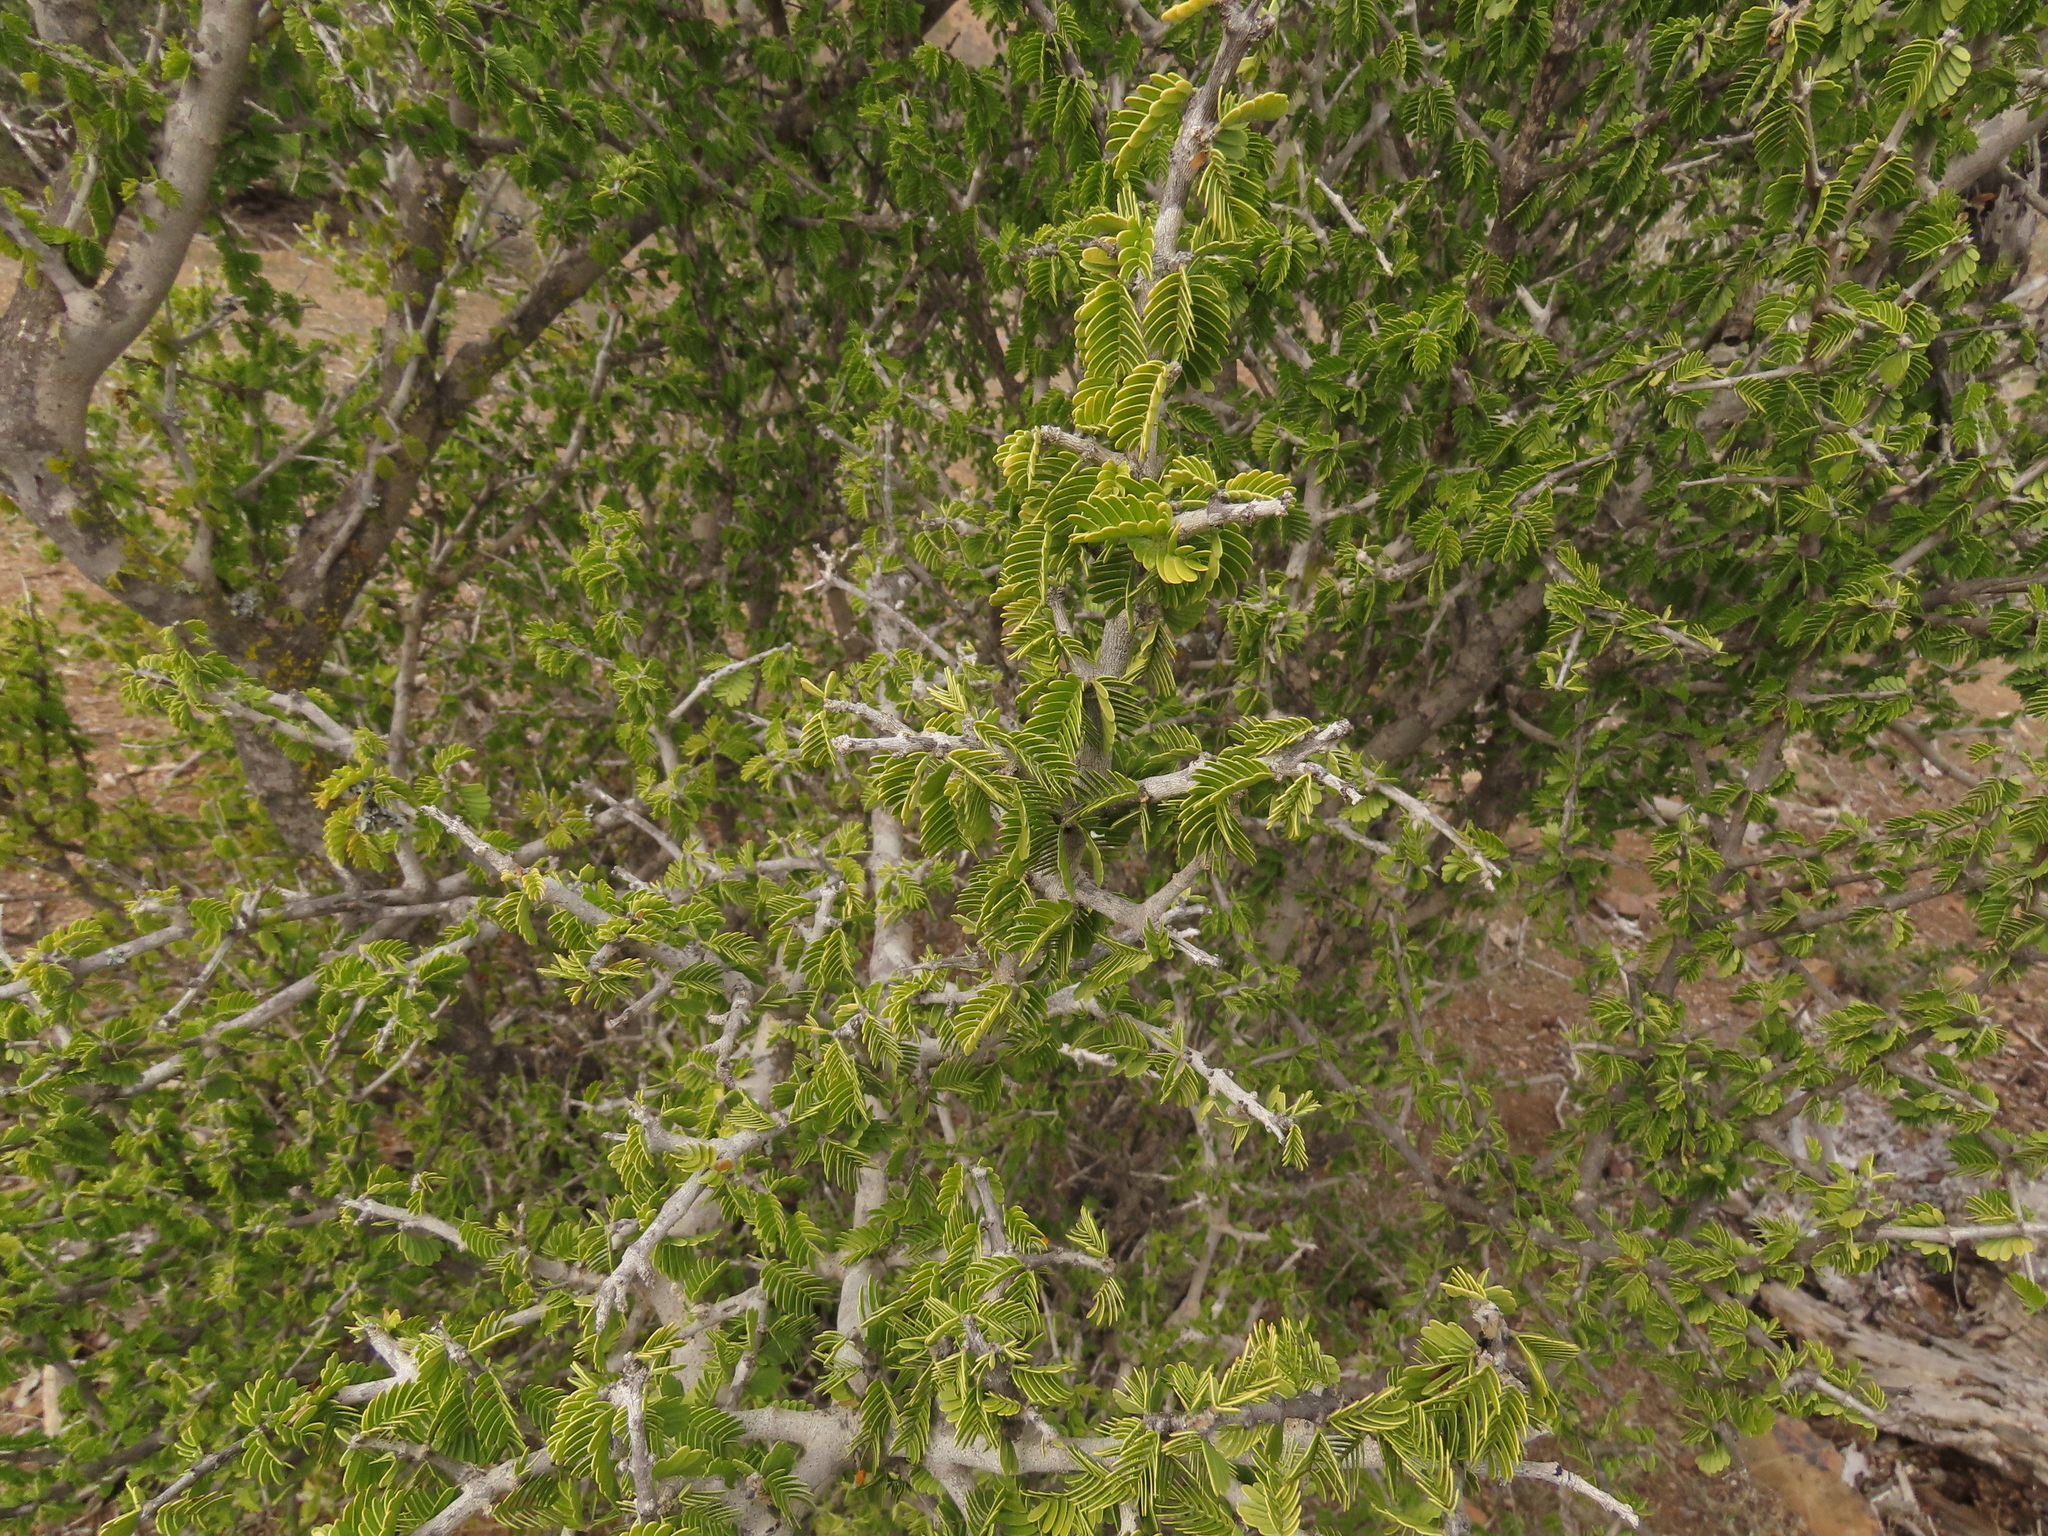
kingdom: Plantae
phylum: Tracheophyta
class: Magnoliopsida
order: Zygophyllales
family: Zygophyllaceae
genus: Porlieria
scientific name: Porlieria chilensis
